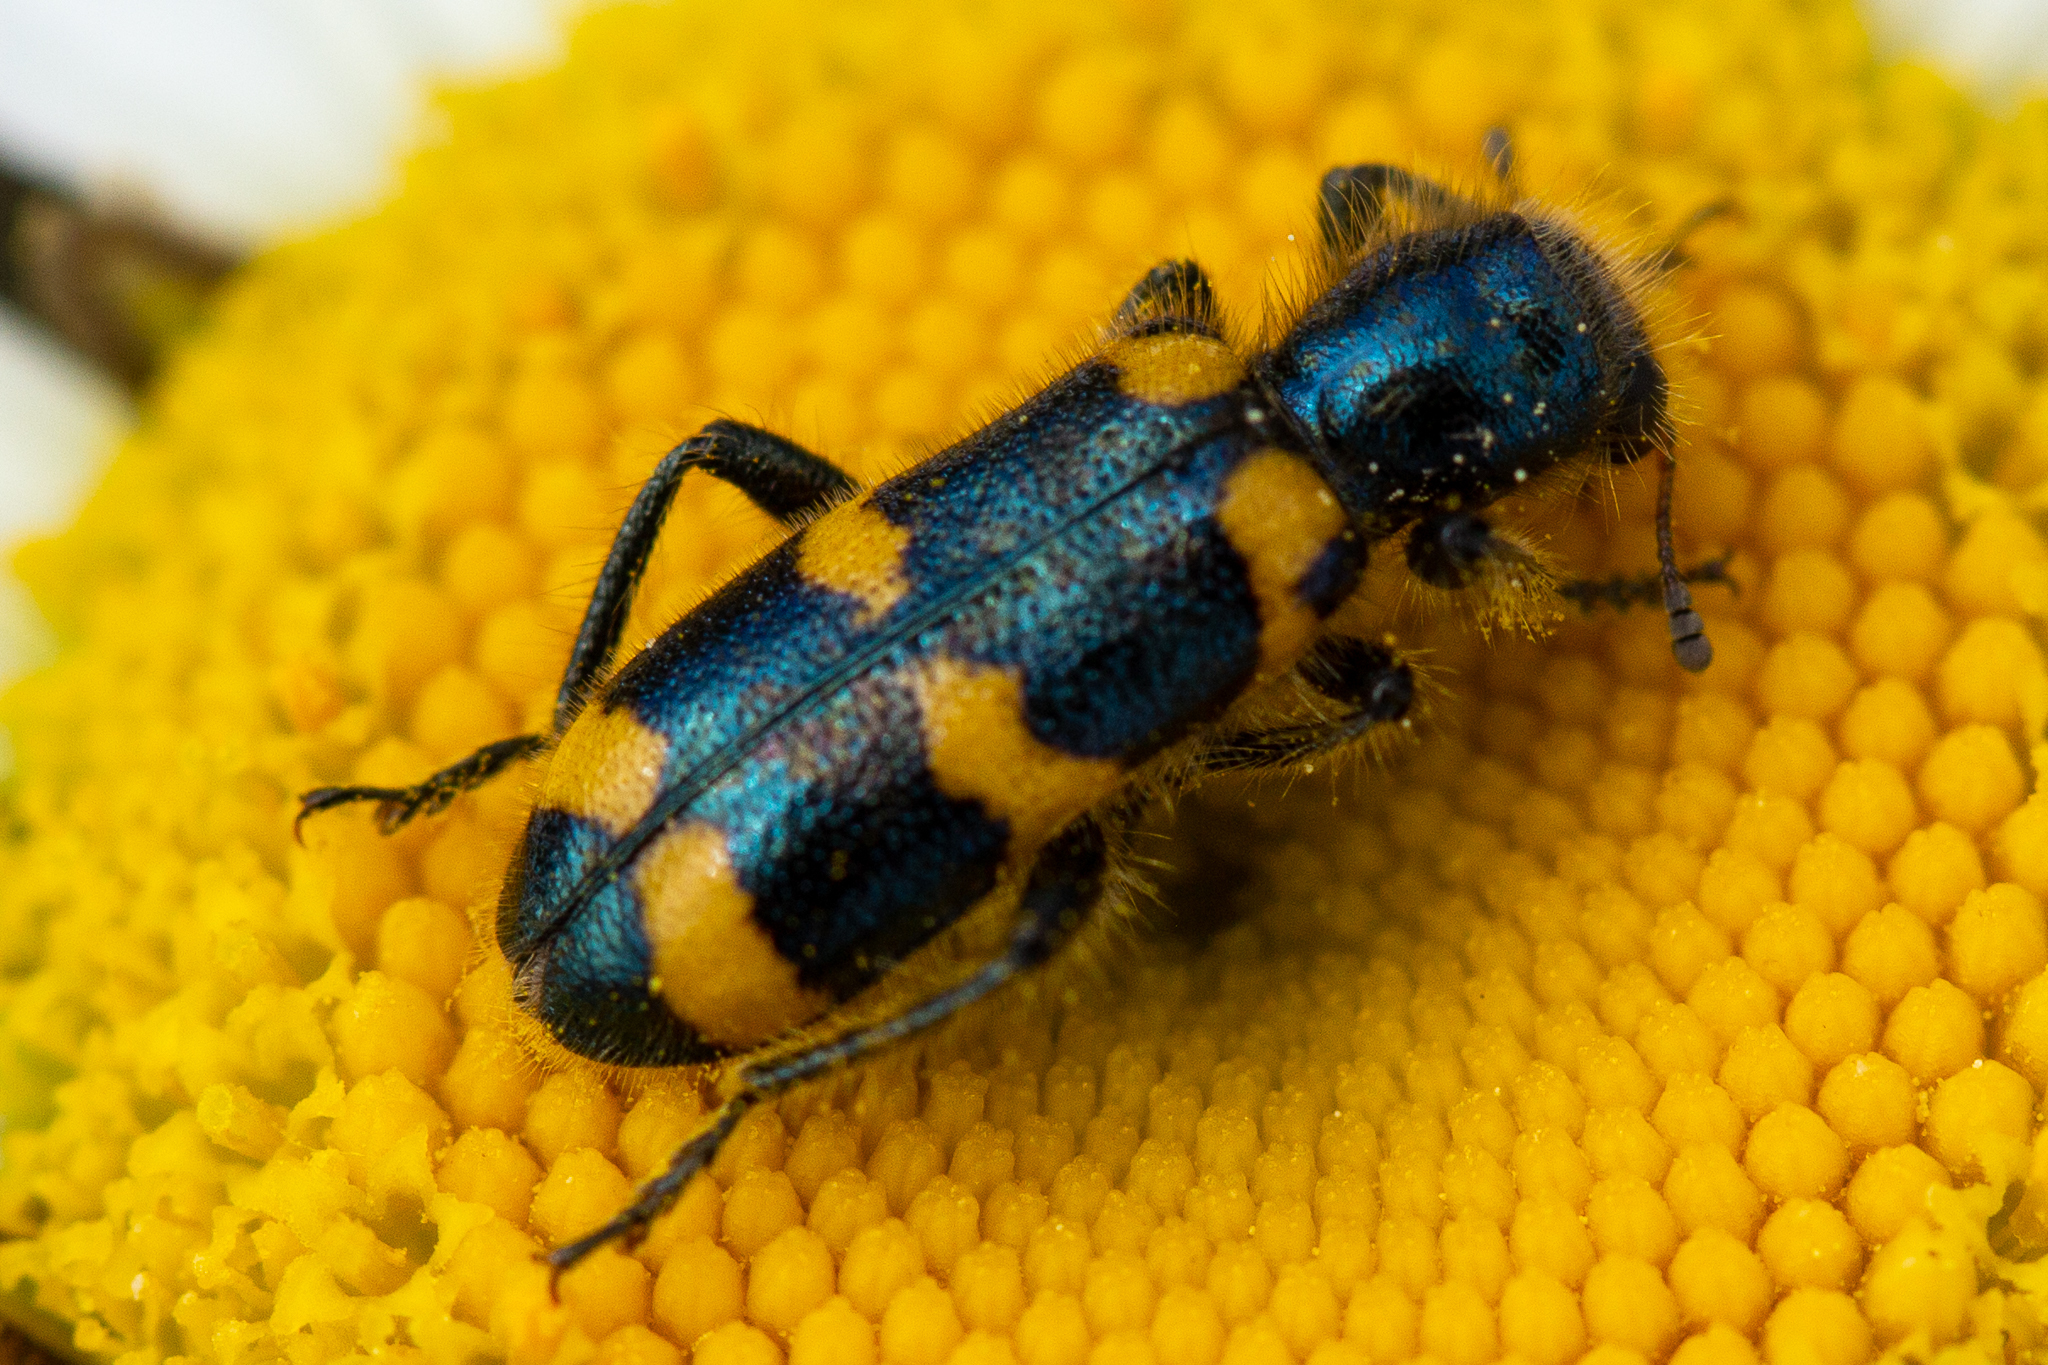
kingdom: Animalia
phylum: Arthropoda
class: Insecta
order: Coleoptera
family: Cleridae
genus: Trichodes
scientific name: Trichodes nutalli
